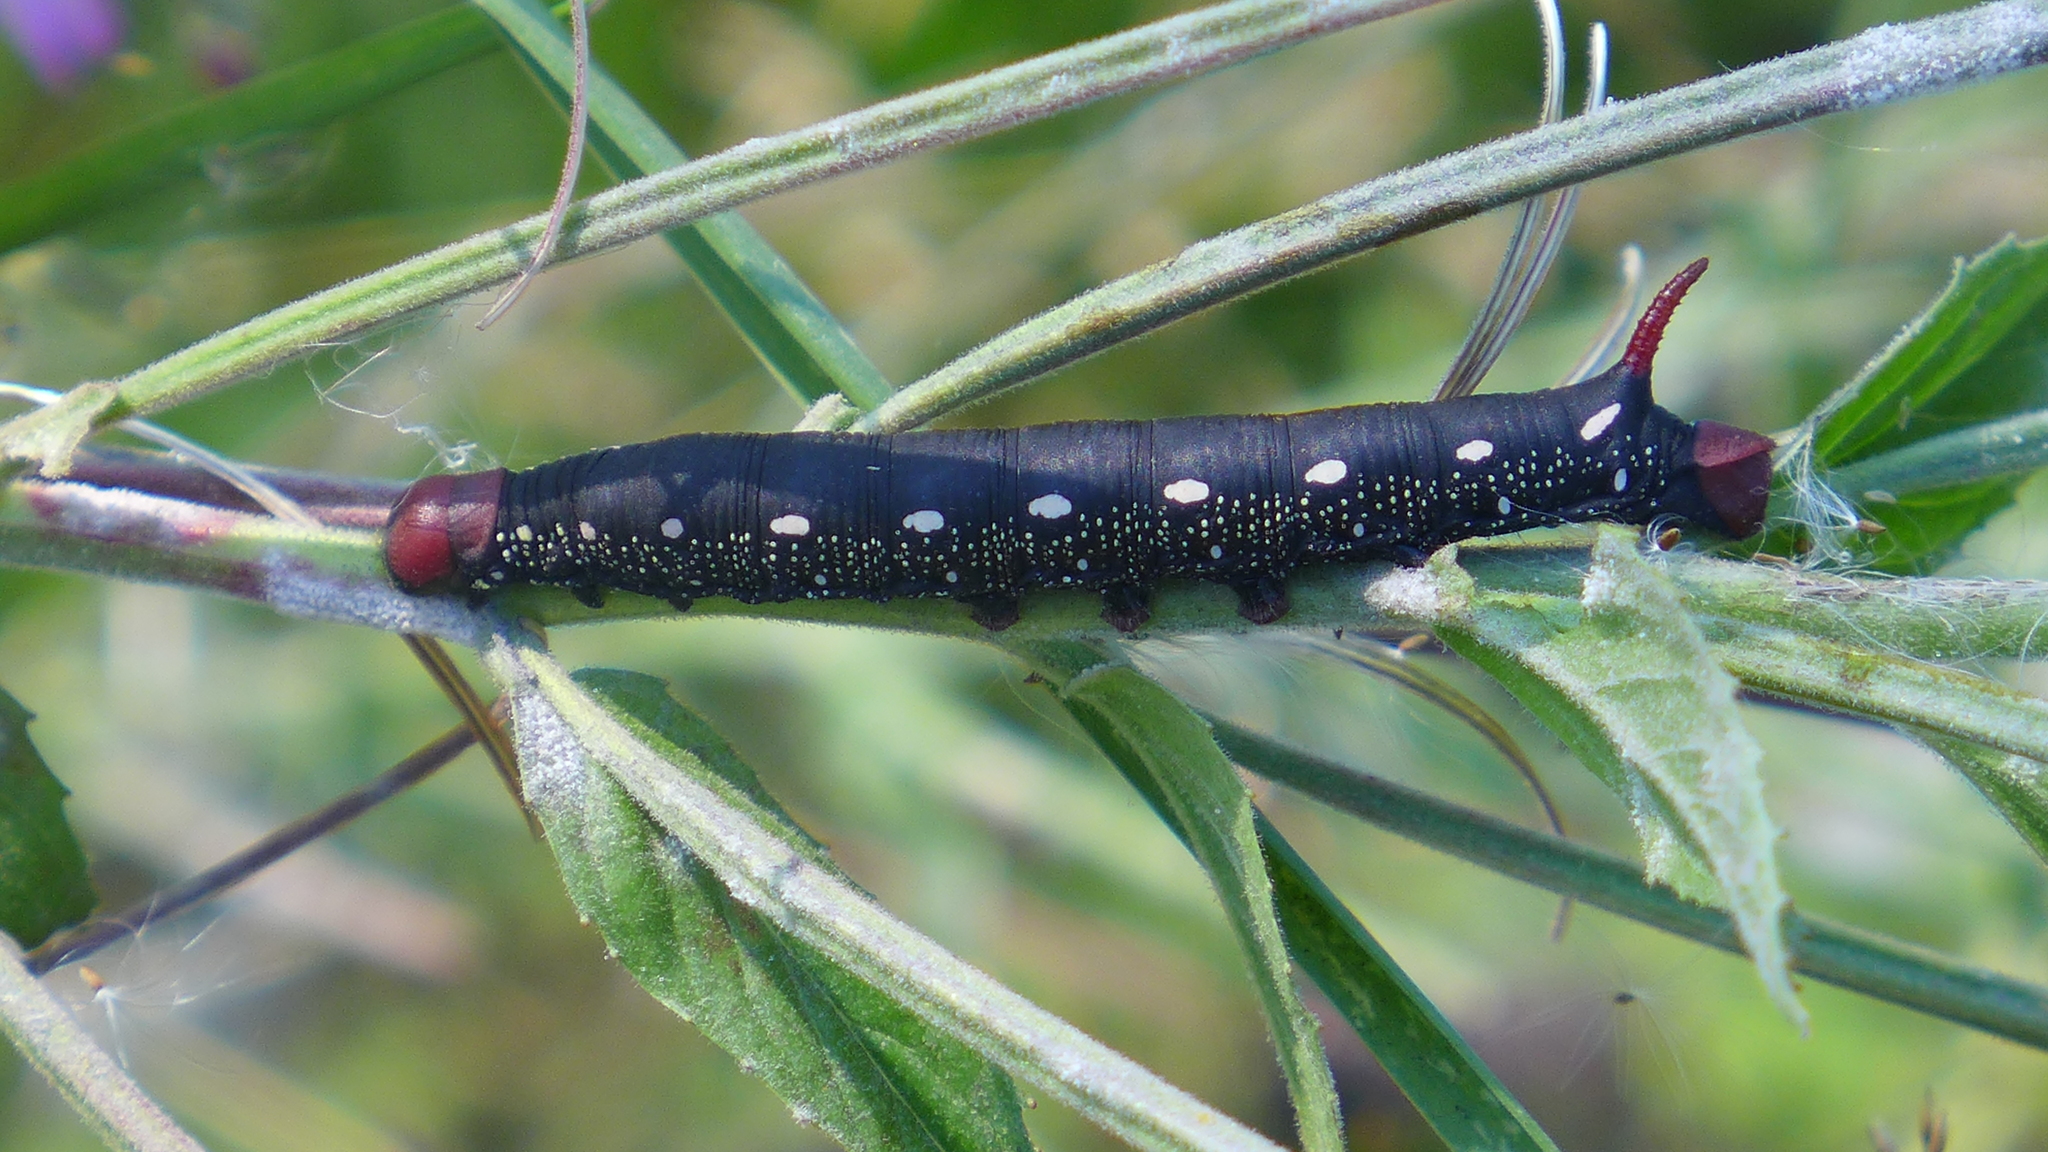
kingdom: Animalia
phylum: Arthropoda
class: Insecta
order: Lepidoptera
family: Sphingidae
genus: Hyles
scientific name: Hyles gallii
